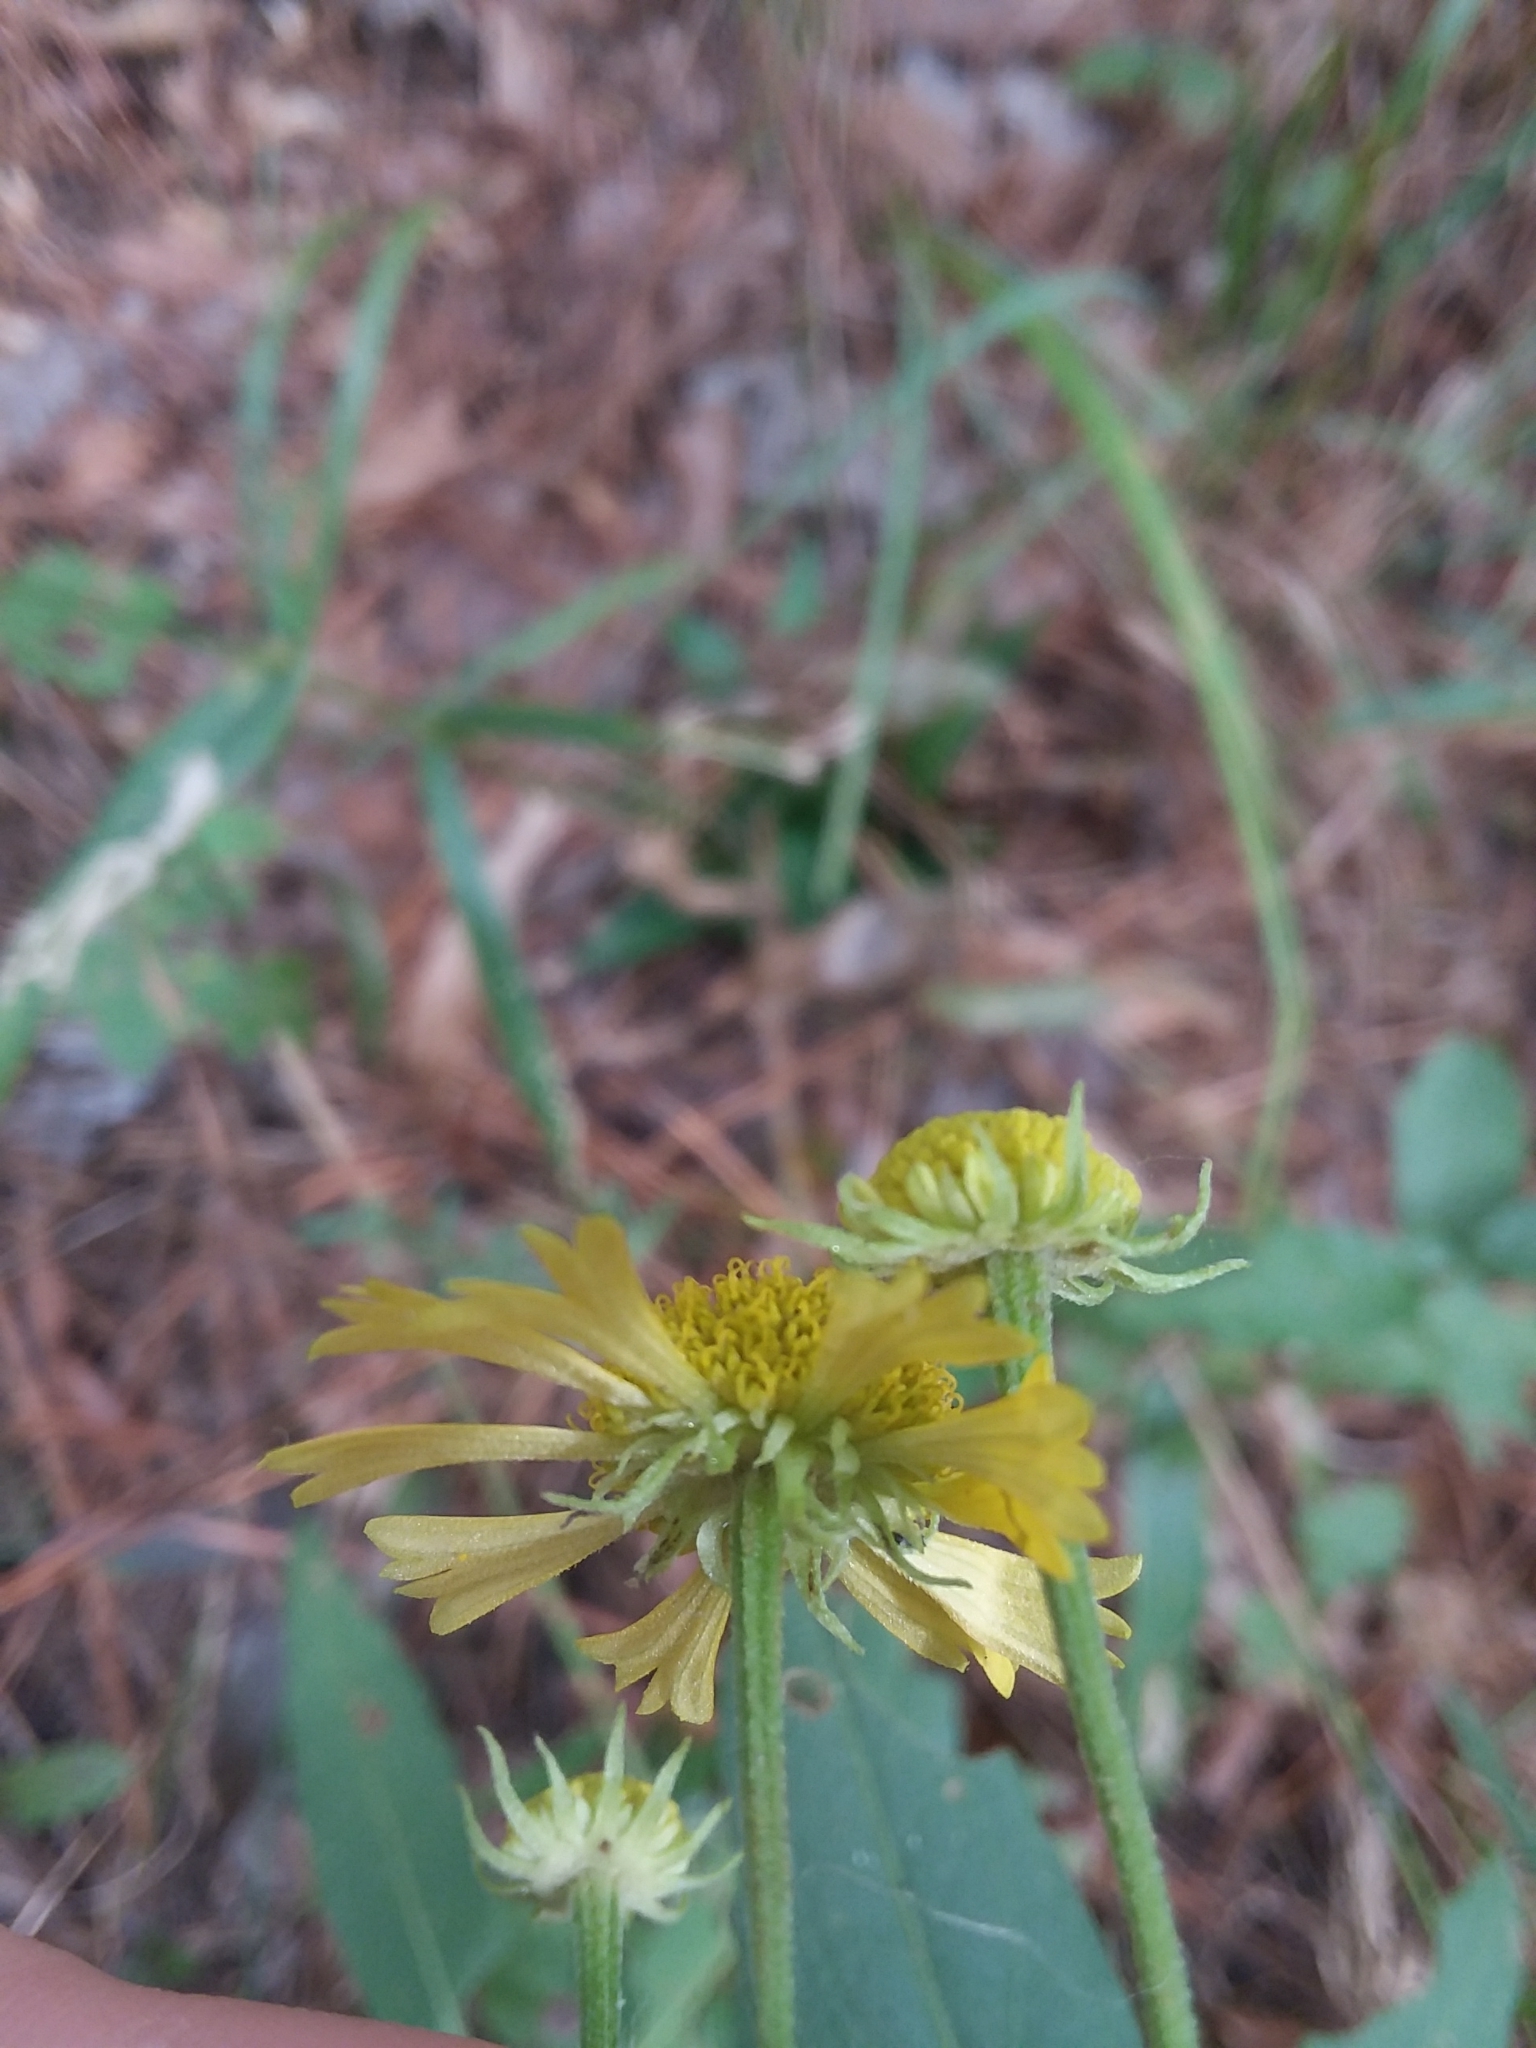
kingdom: Plantae
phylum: Tracheophyta
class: Magnoliopsida
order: Asterales
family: Asteraceae
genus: Helenium
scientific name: Helenium autumnale
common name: Sneezeweed
